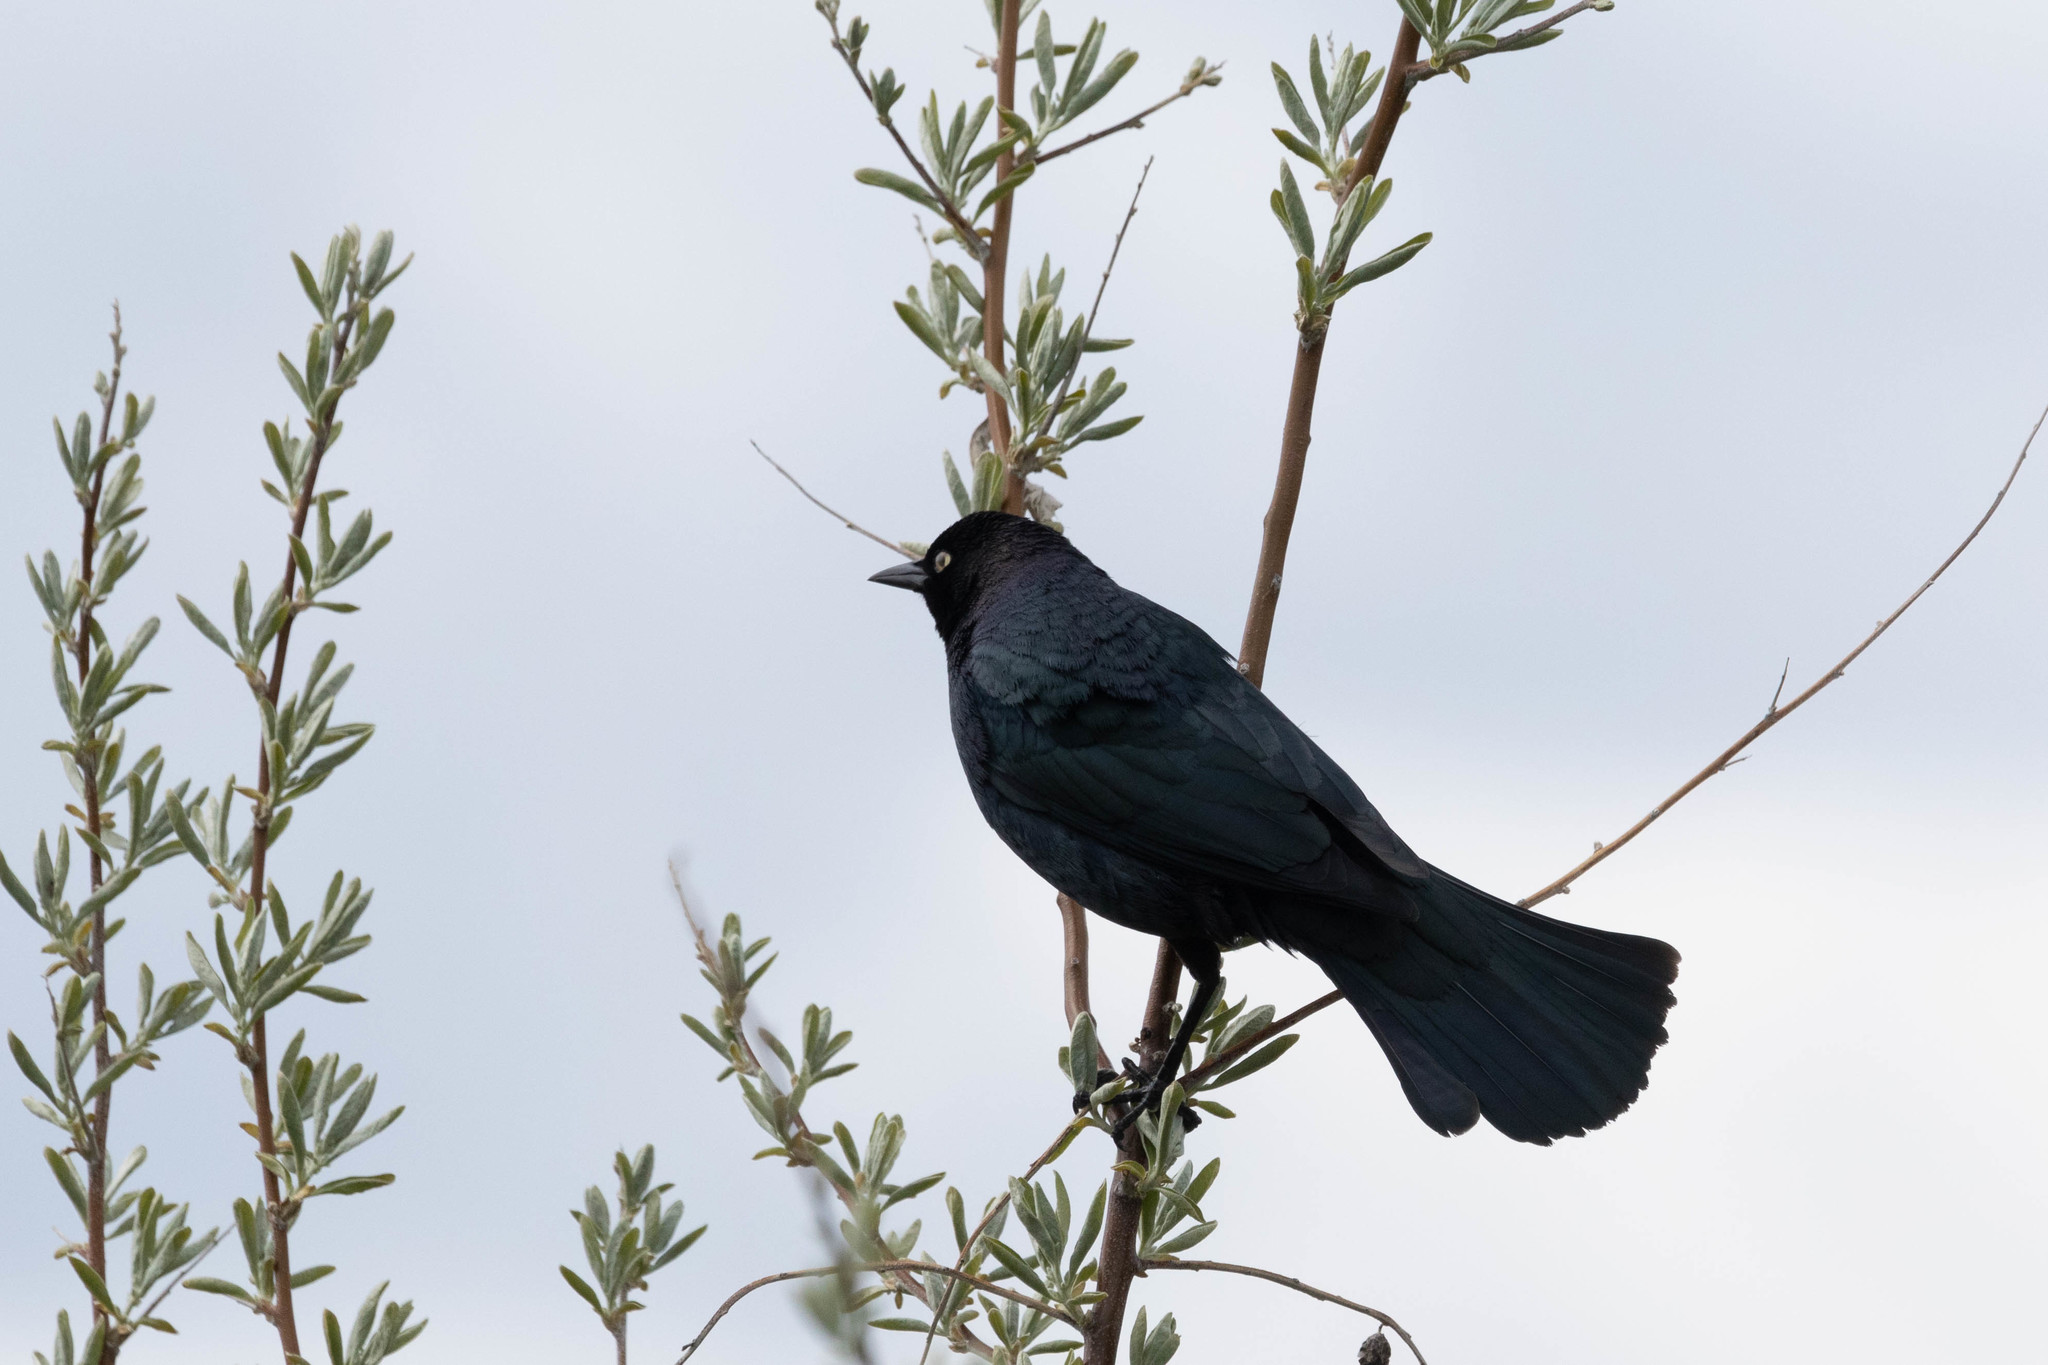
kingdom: Animalia
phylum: Chordata
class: Aves
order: Passeriformes
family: Icteridae
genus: Euphagus
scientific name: Euphagus cyanocephalus
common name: Brewer's blackbird
